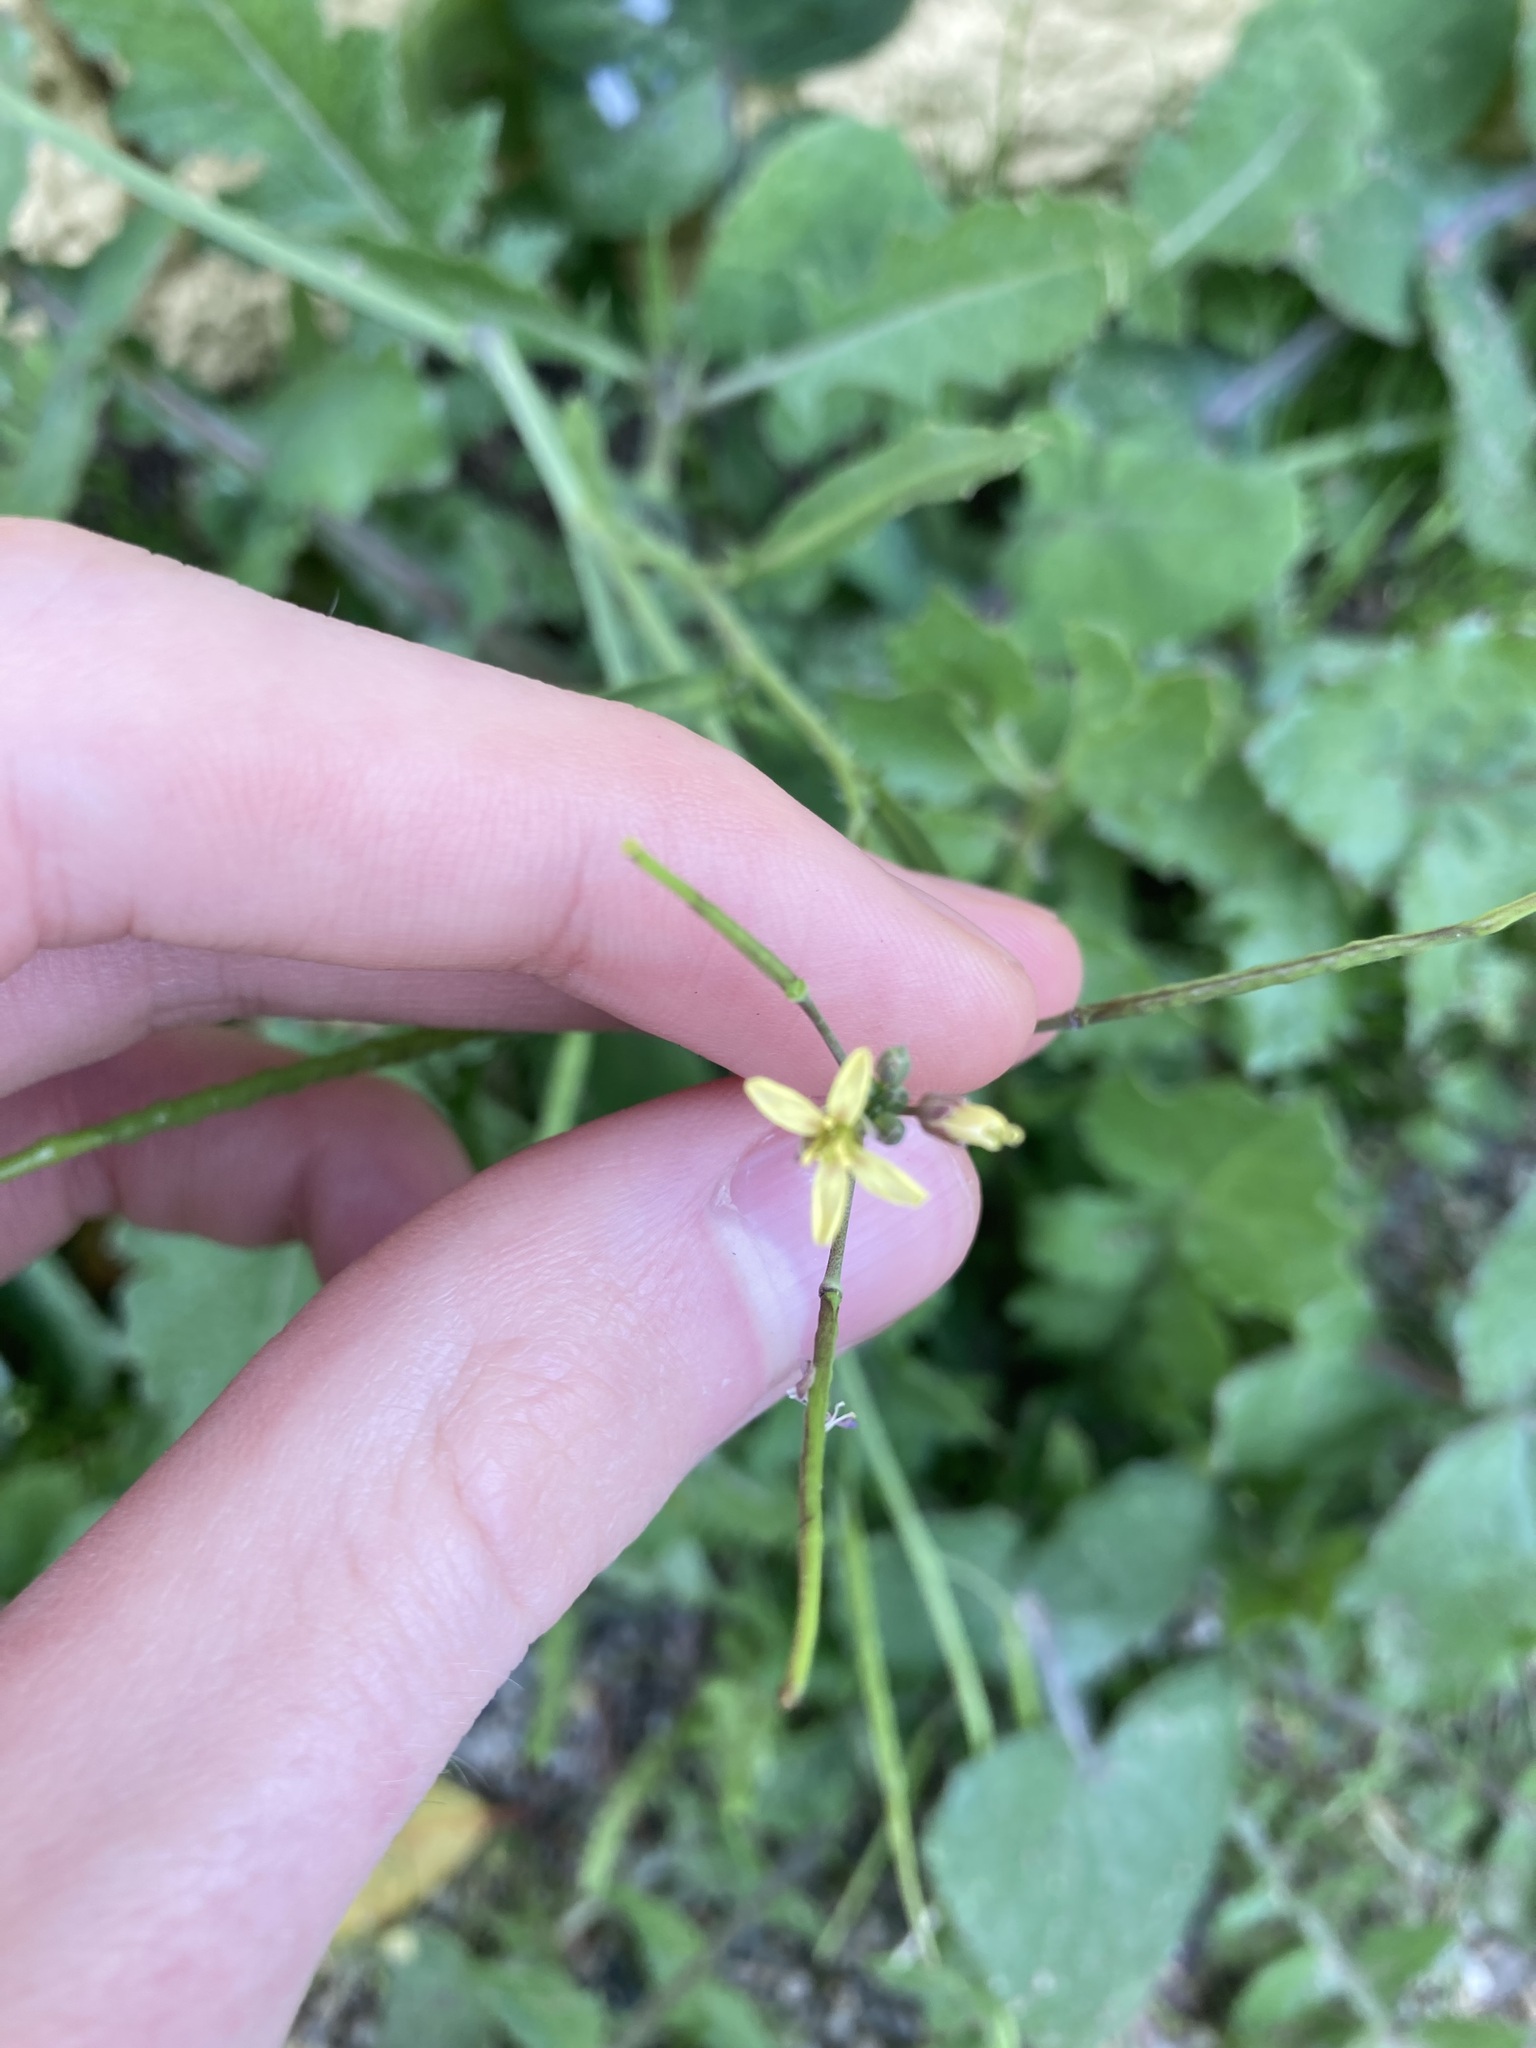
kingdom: Plantae
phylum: Tracheophyta
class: Magnoliopsida
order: Brassicales
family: Brassicaceae
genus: Brassica
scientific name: Brassica tournefortii
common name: Pale cabbage
